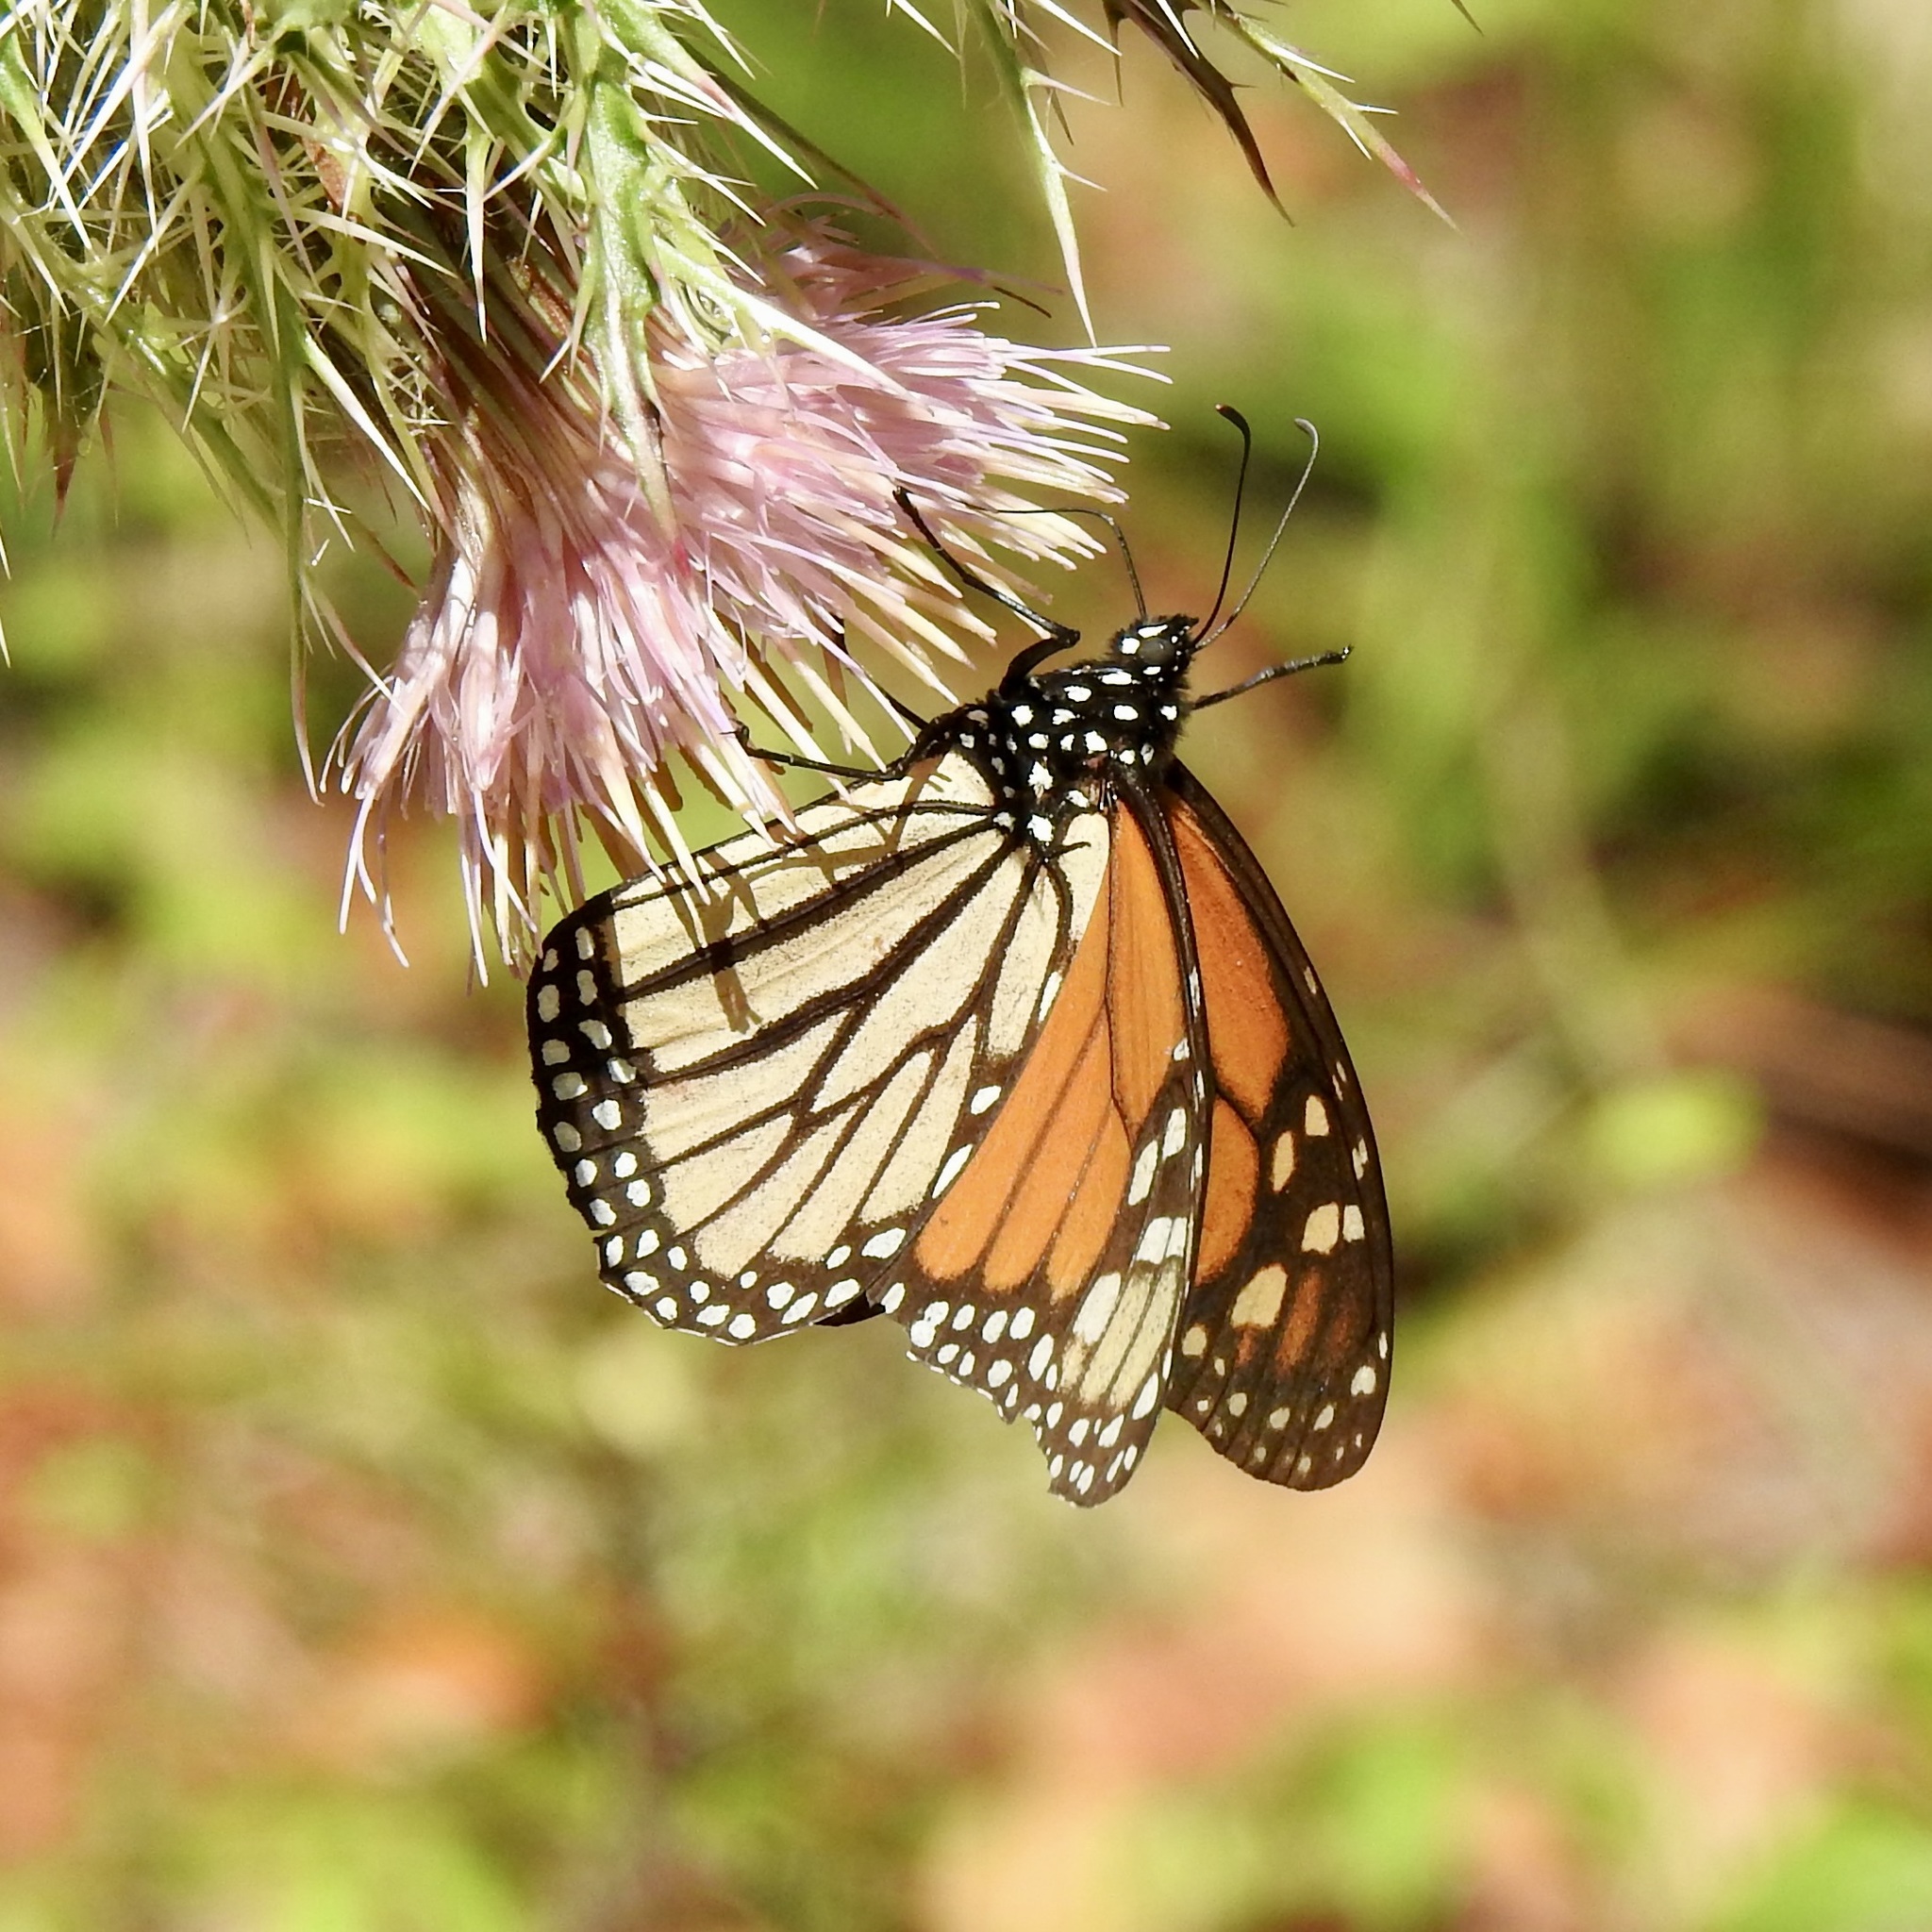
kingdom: Animalia
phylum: Arthropoda
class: Insecta
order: Lepidoptera
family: Nymphalidae
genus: Danaus
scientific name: Danaus plexippus
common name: Monarch
